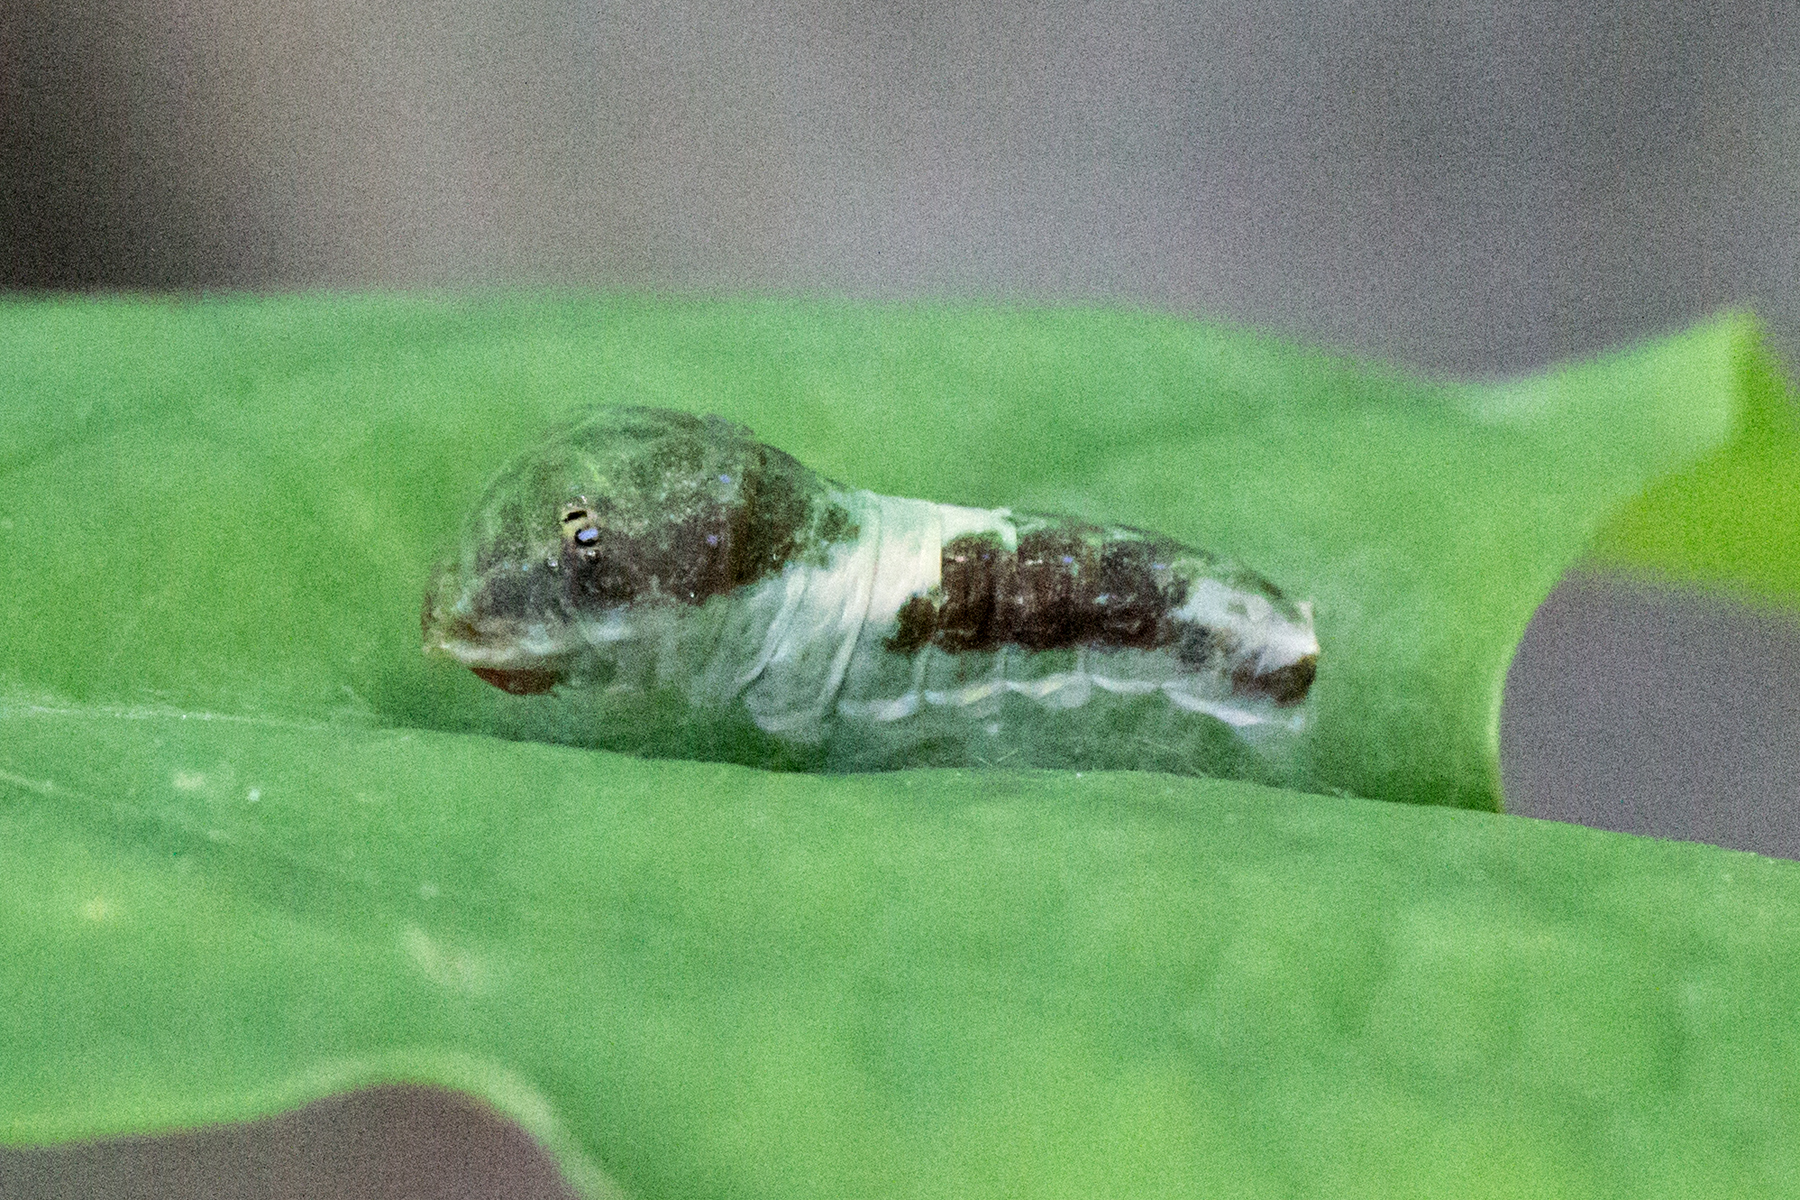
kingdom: Animalia
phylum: Arthropoda
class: Insecta
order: Lepidoptera
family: Papilionidae
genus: Papilio
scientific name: Papilio glaucus
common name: Tiger swallowtail
